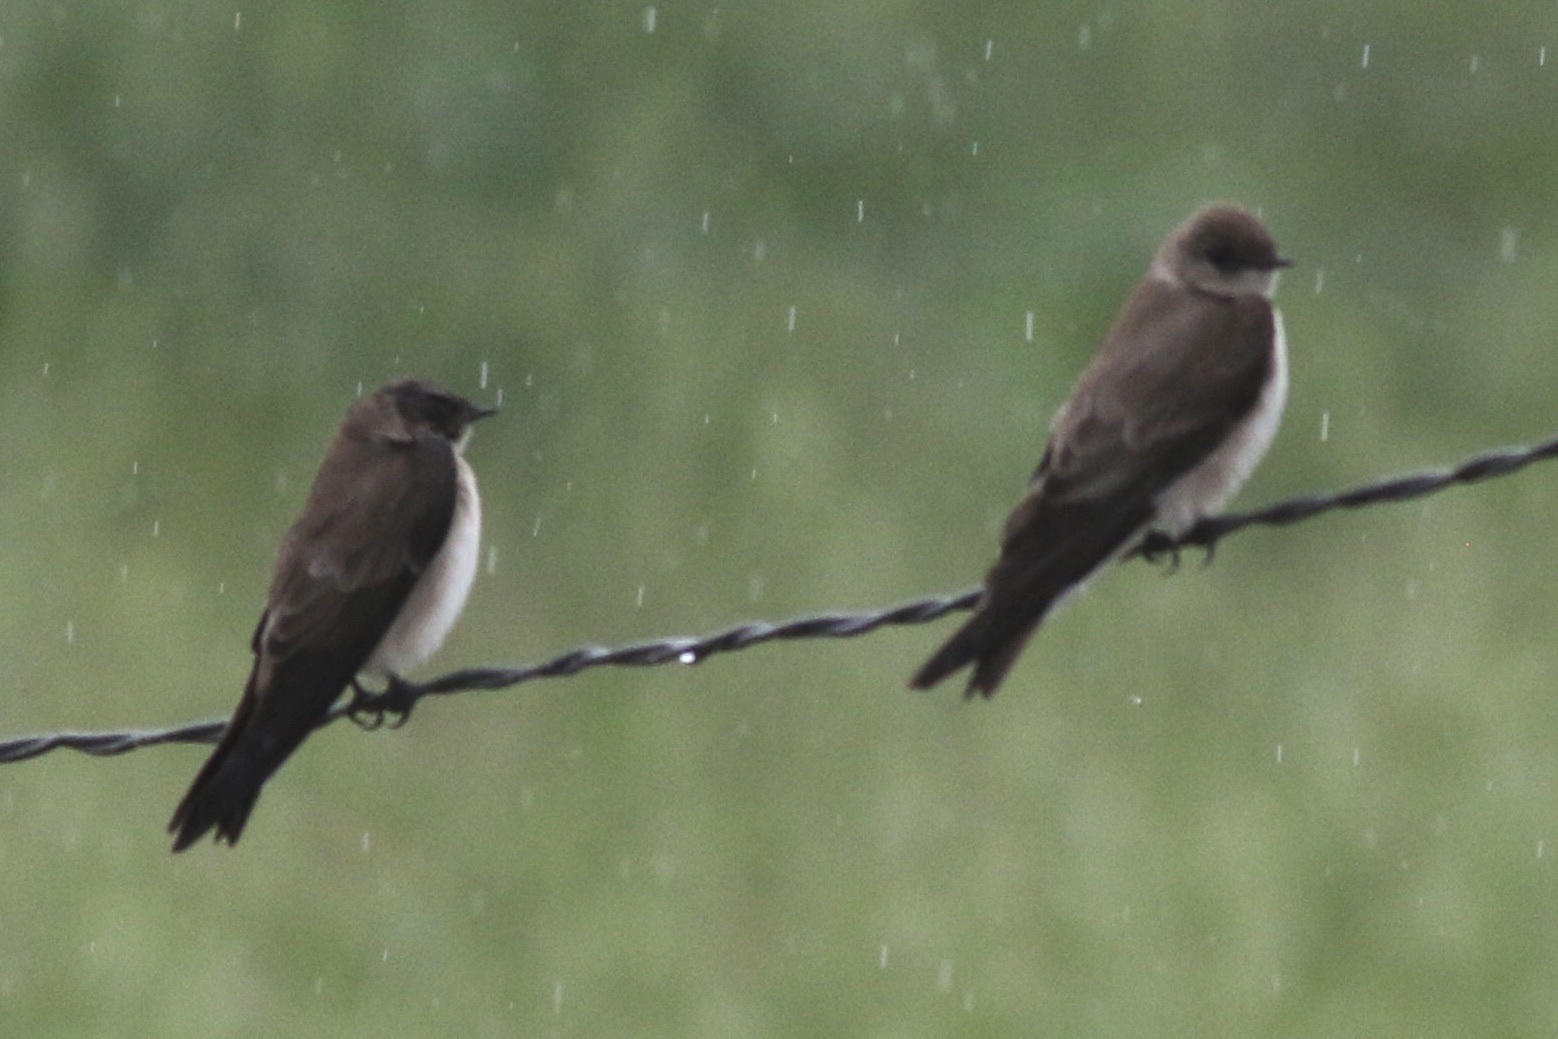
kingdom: Animalia
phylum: Chordata
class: Aves
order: Passeriformes
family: Hirundinidae
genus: Stelgidopteryx
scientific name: Stelgidopteryx serripennis
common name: Northern rough-winged swallow
